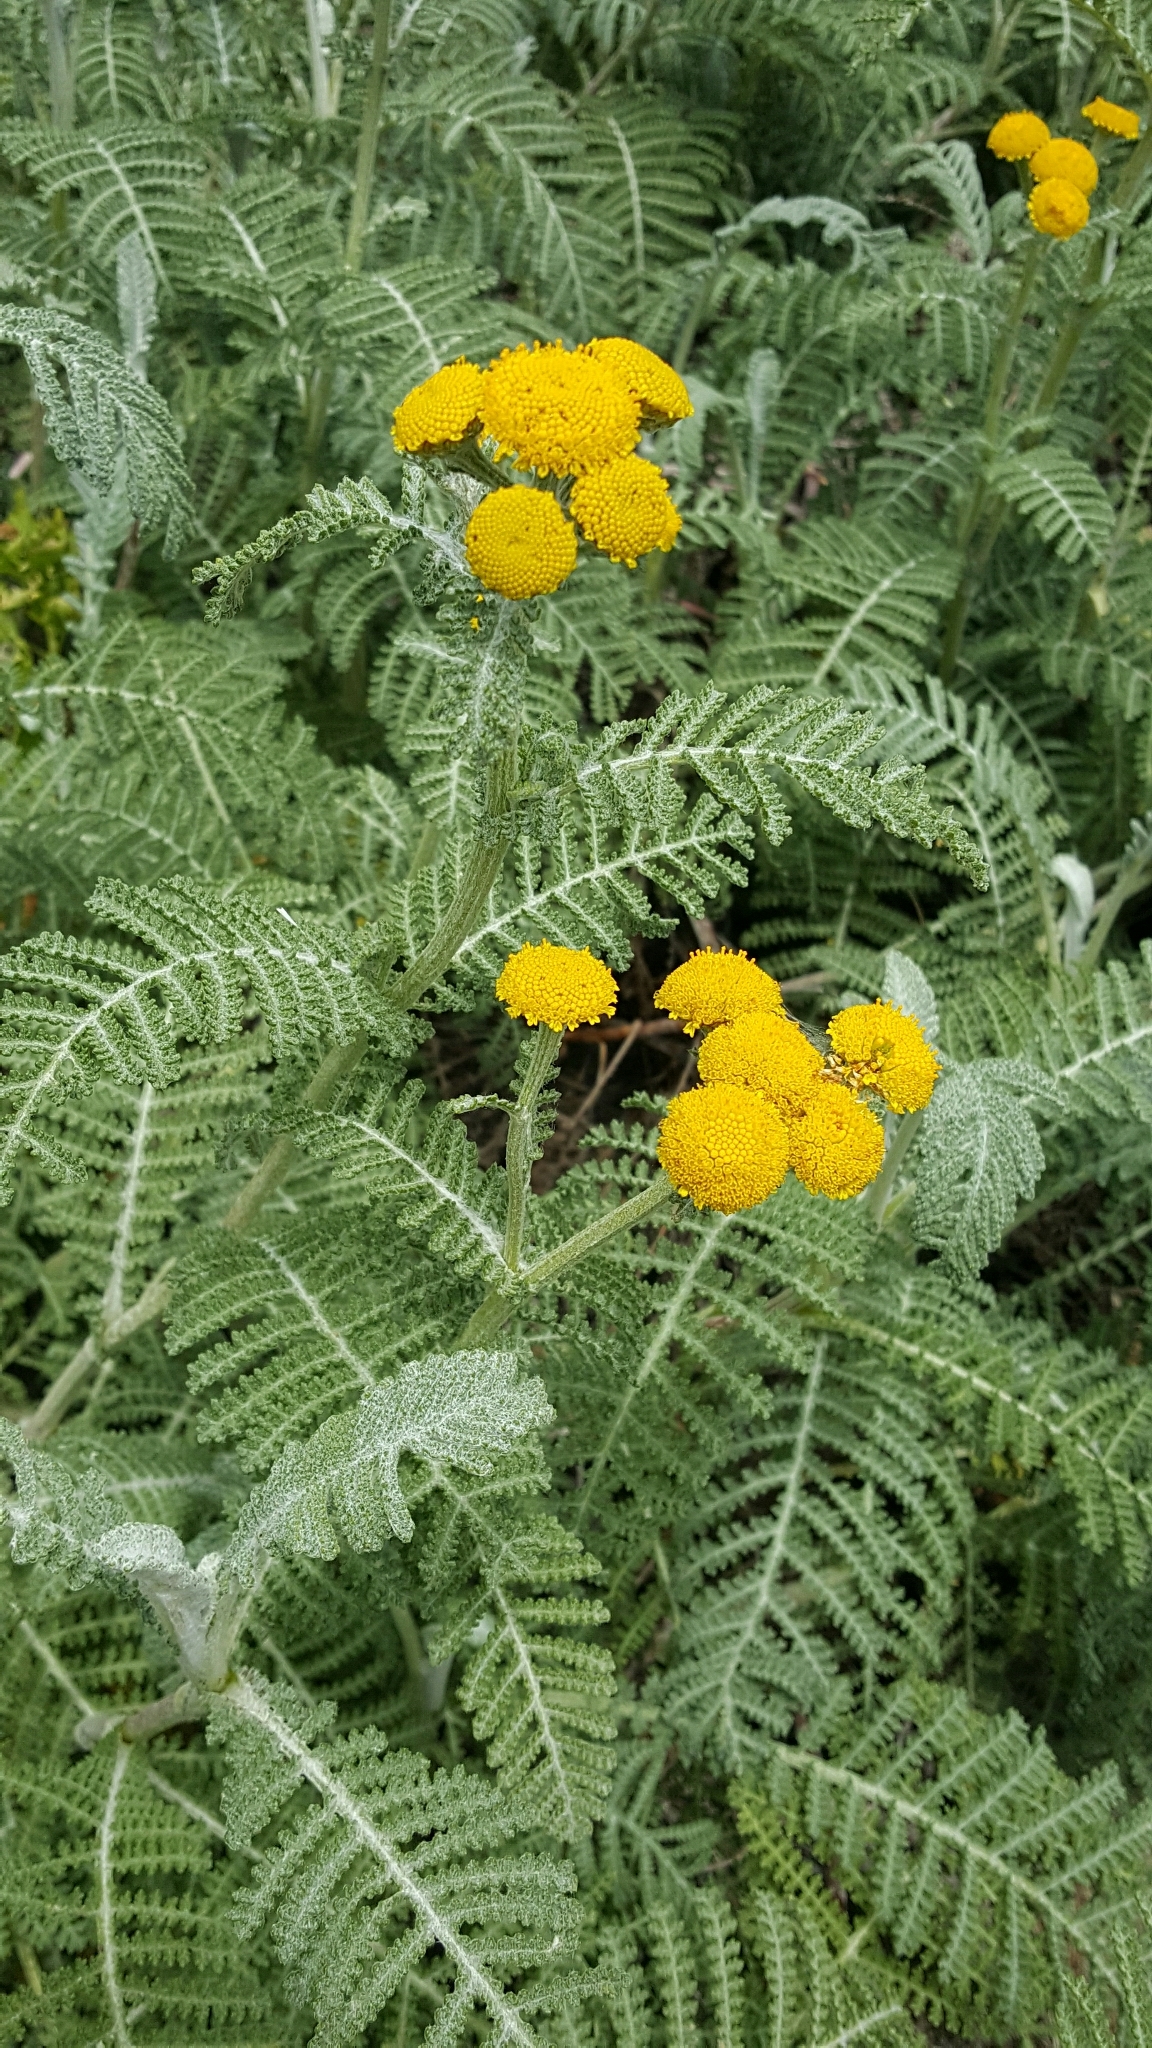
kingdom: Plantae
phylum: Tracheophyta
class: Magnoliopsida
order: Asterales
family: Asteraceae
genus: Tanacetum
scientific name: Tanacetum bipinnatum
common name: Dwarf tansy
